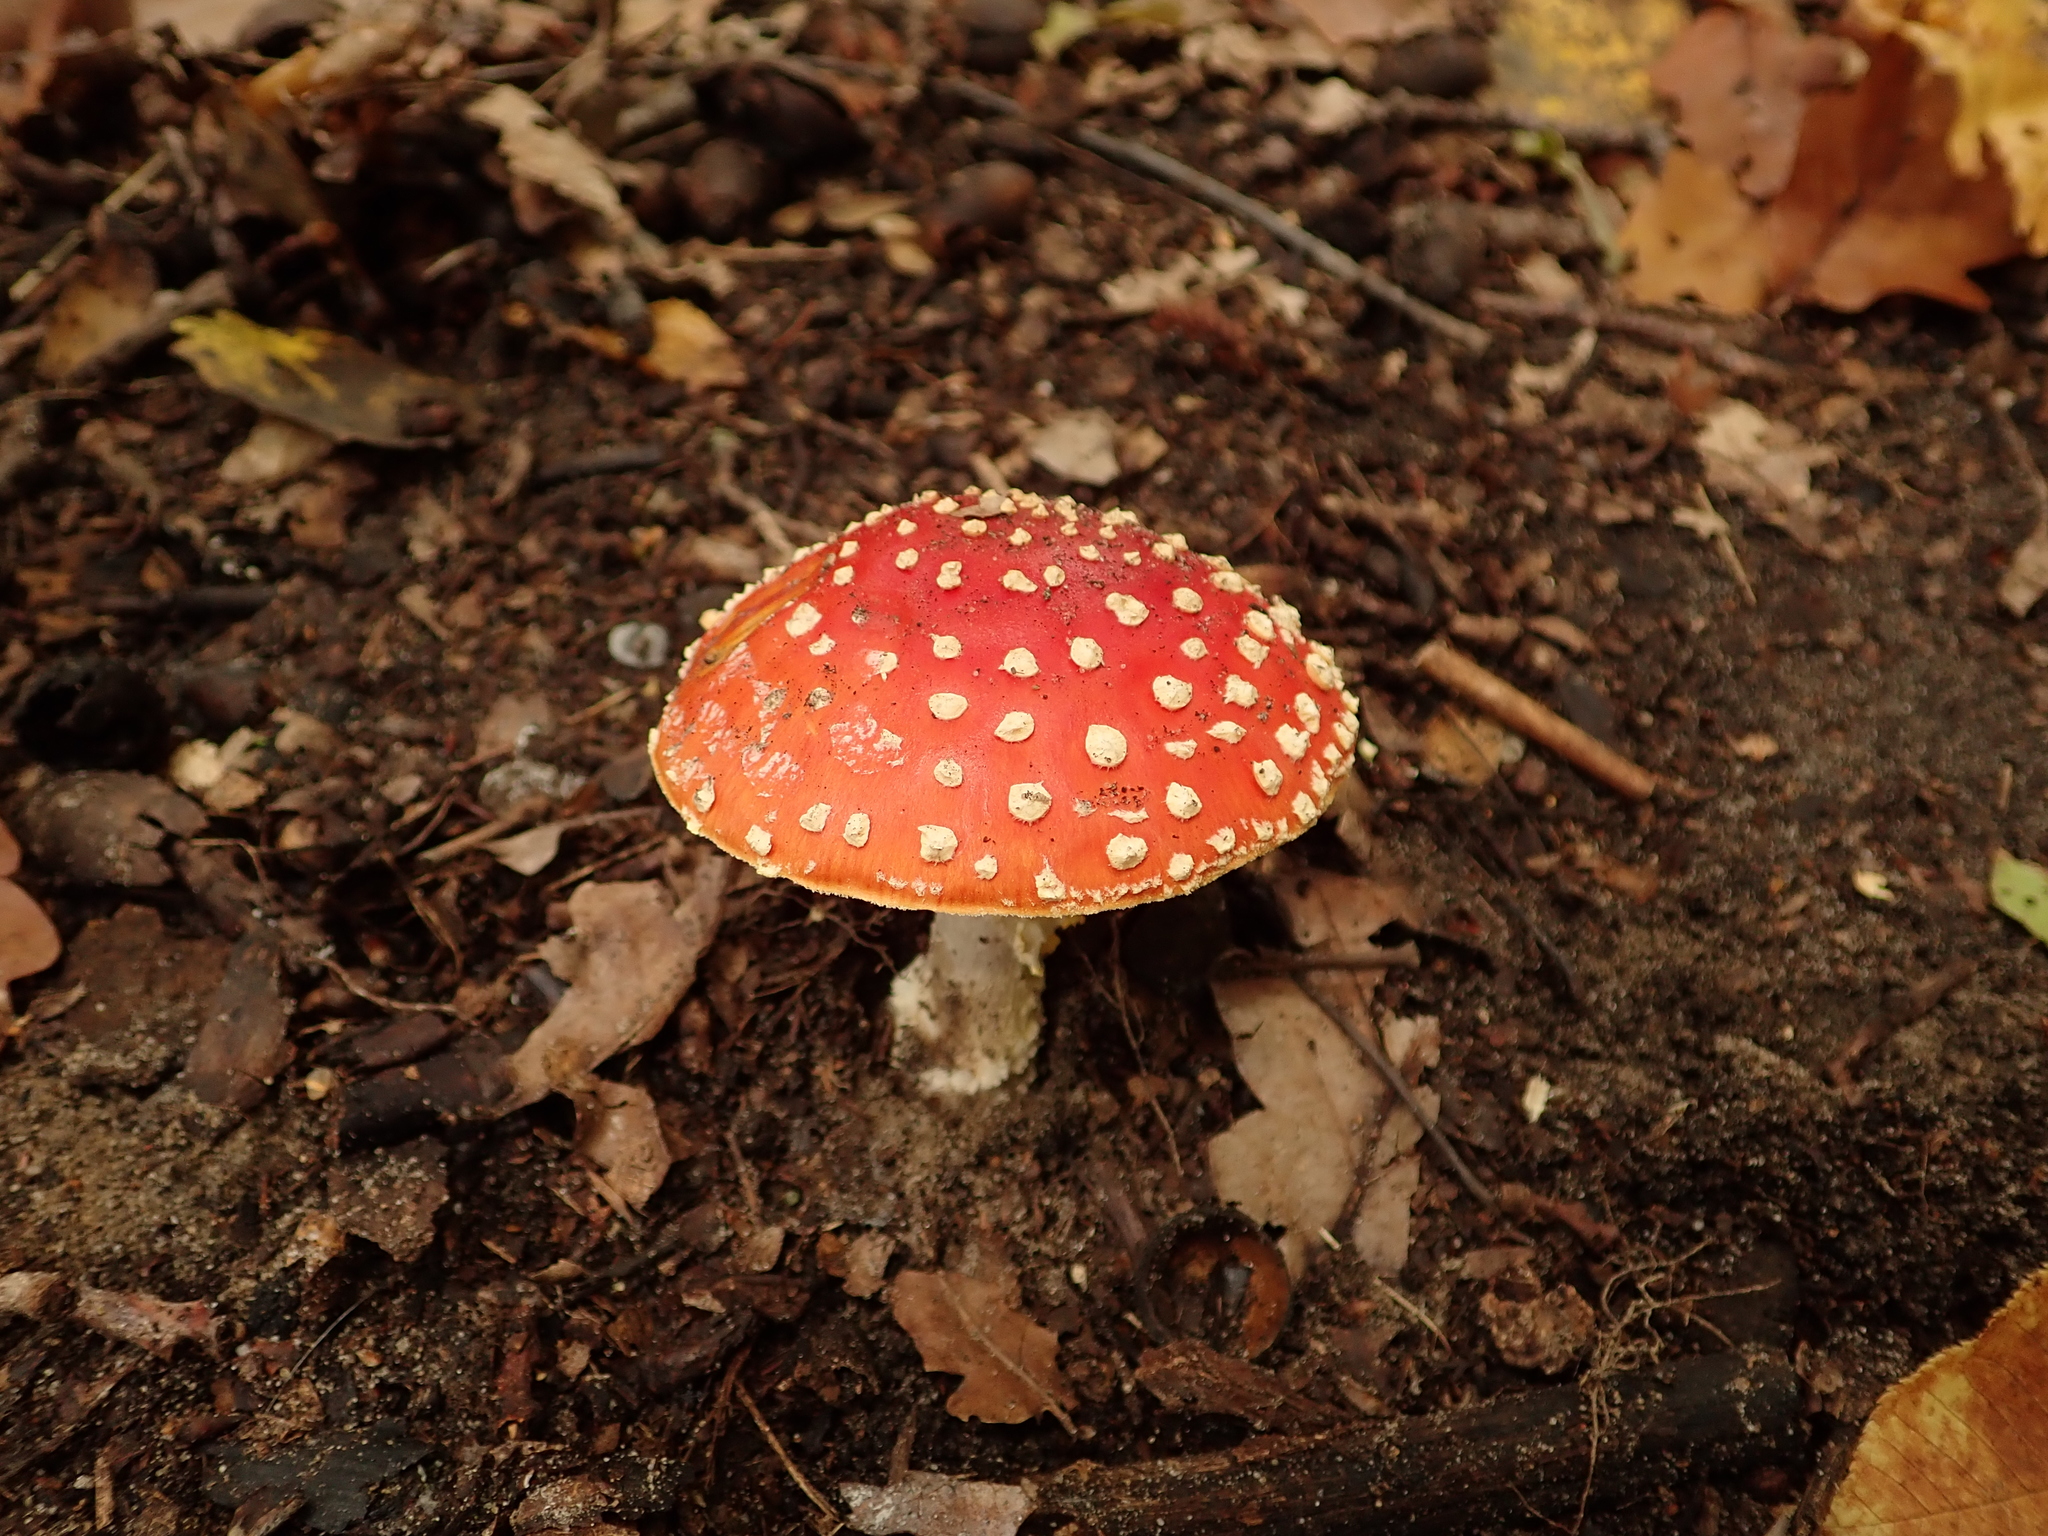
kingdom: Fungi
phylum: Basidiomycota
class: Agaricomycetes
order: Agaricales
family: Amanitaceae
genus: Amanita
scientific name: Amanita muscaria
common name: Fly agaric
